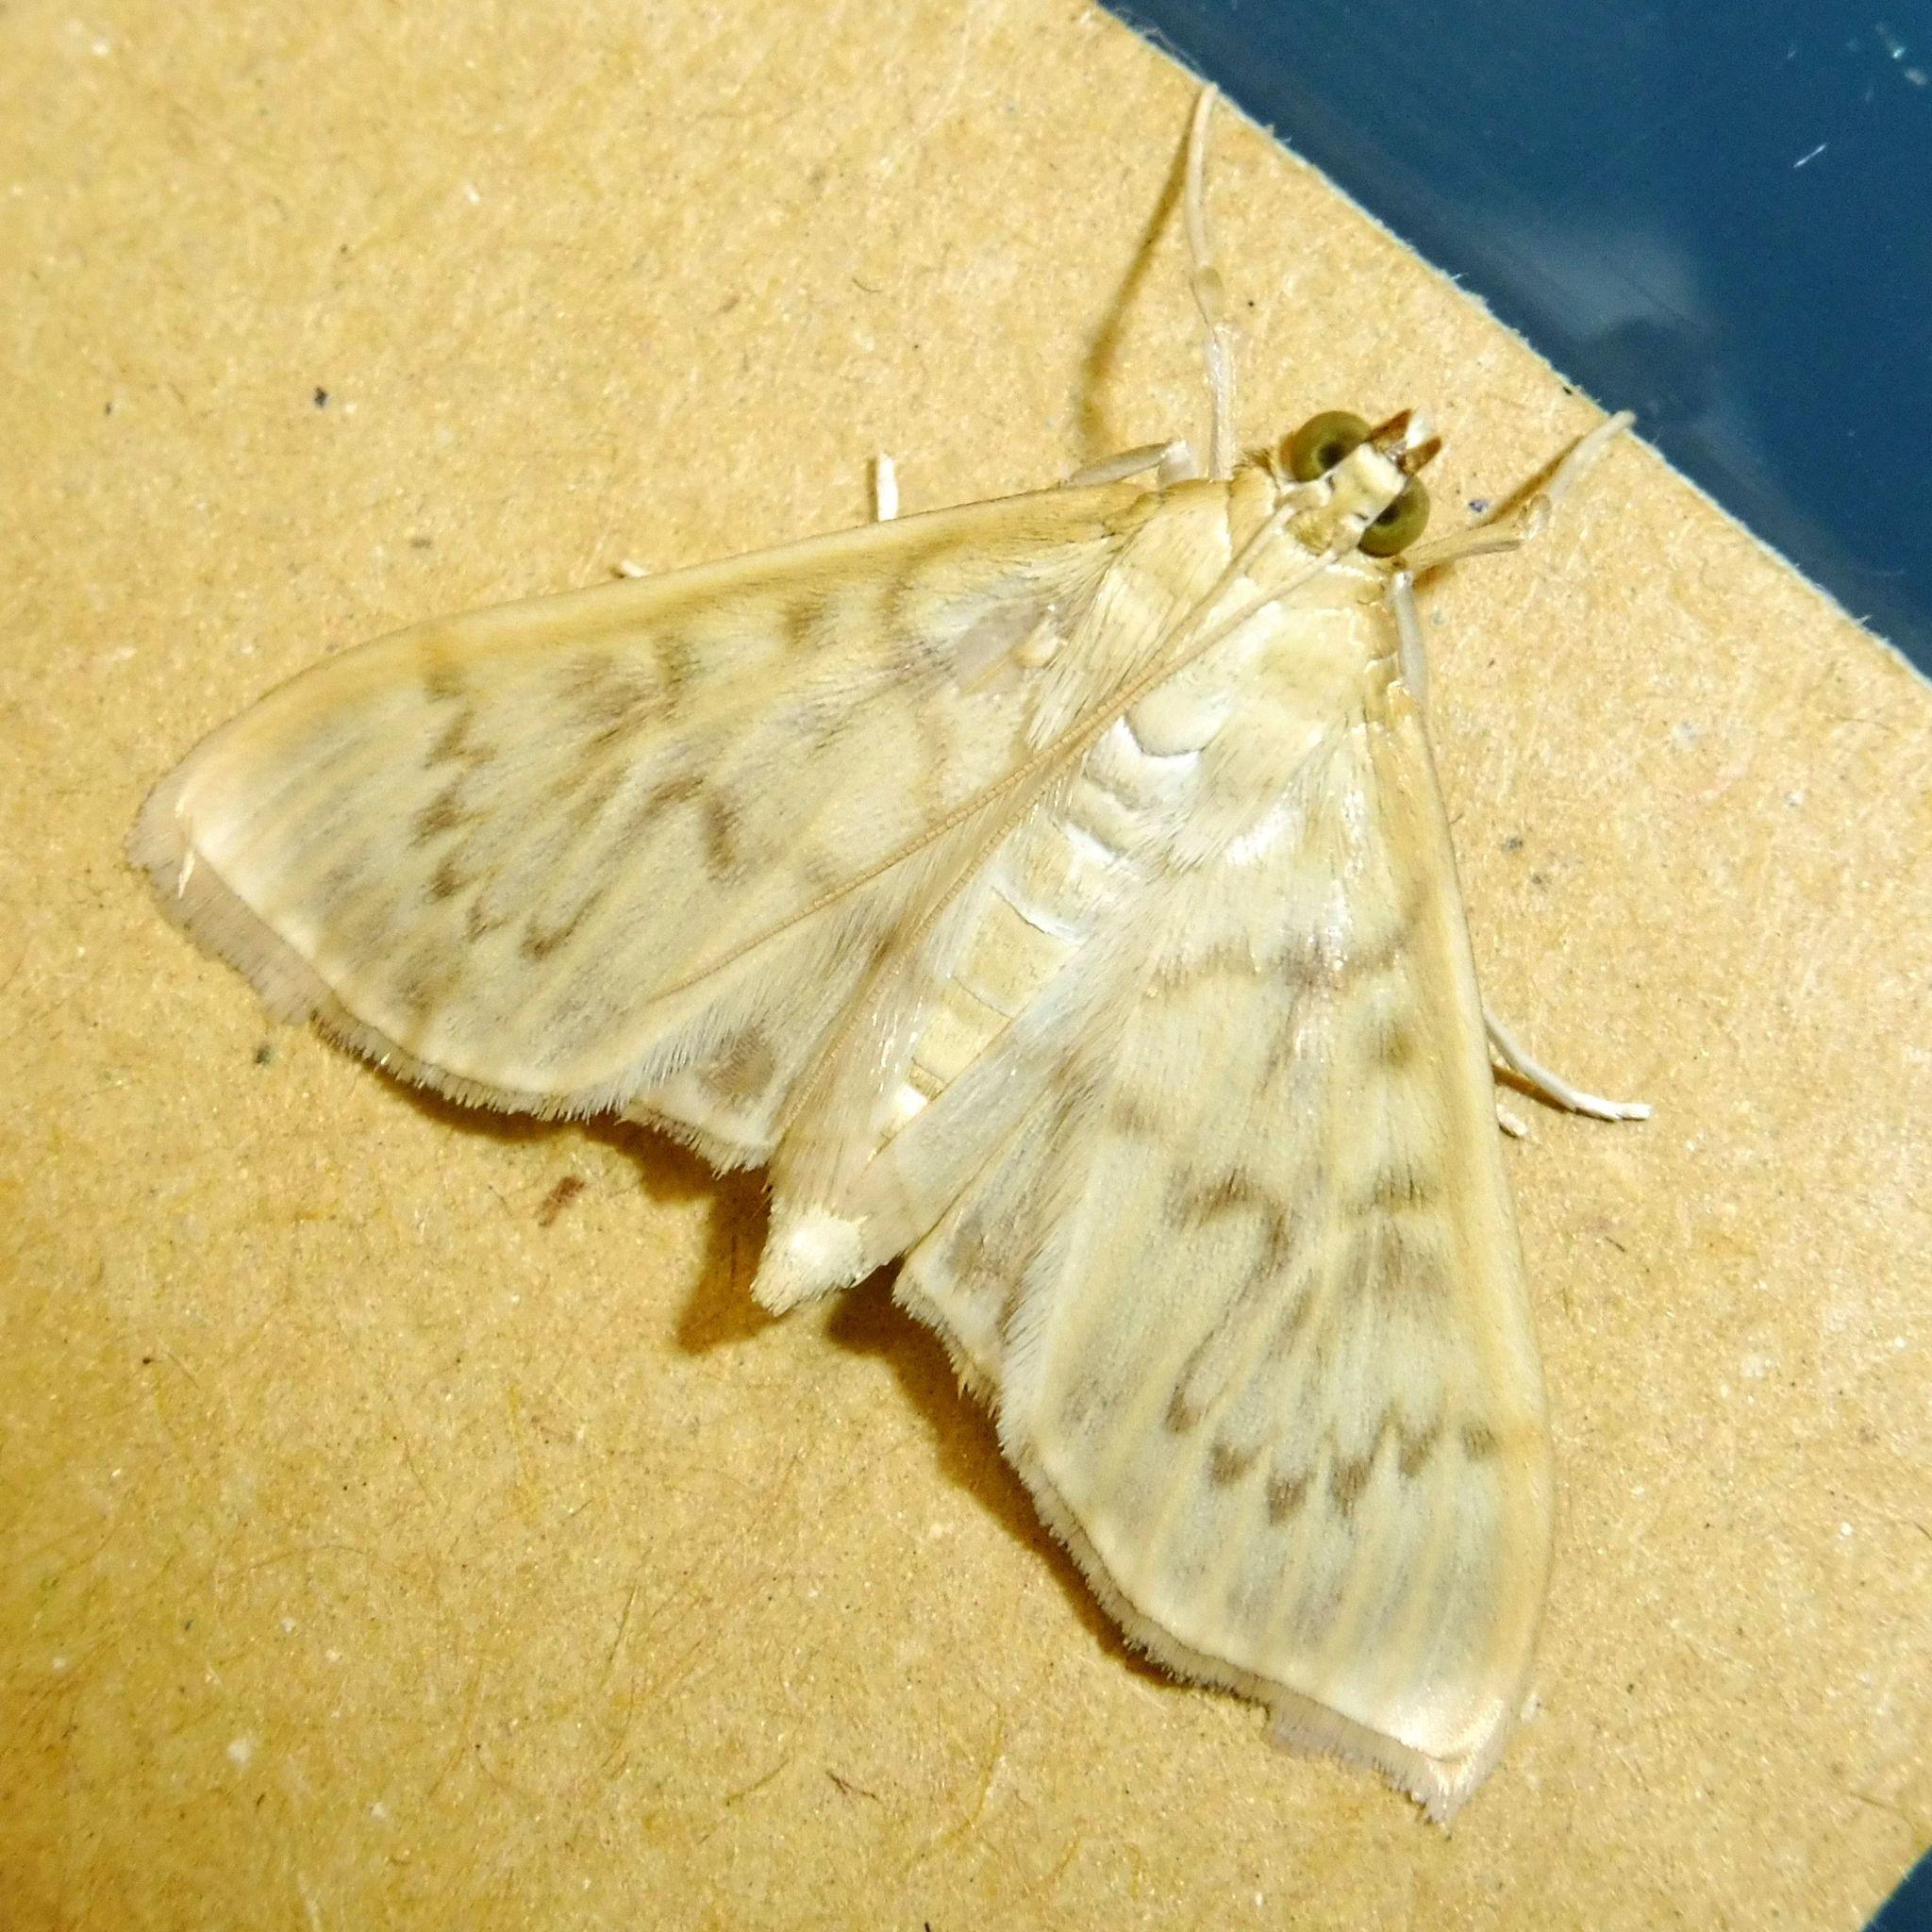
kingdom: Animalia
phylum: Arthropoda
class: Insecta
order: Lepidoptera
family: Crambidae
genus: Patania
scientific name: Patania ruralis
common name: Mother of pearl
